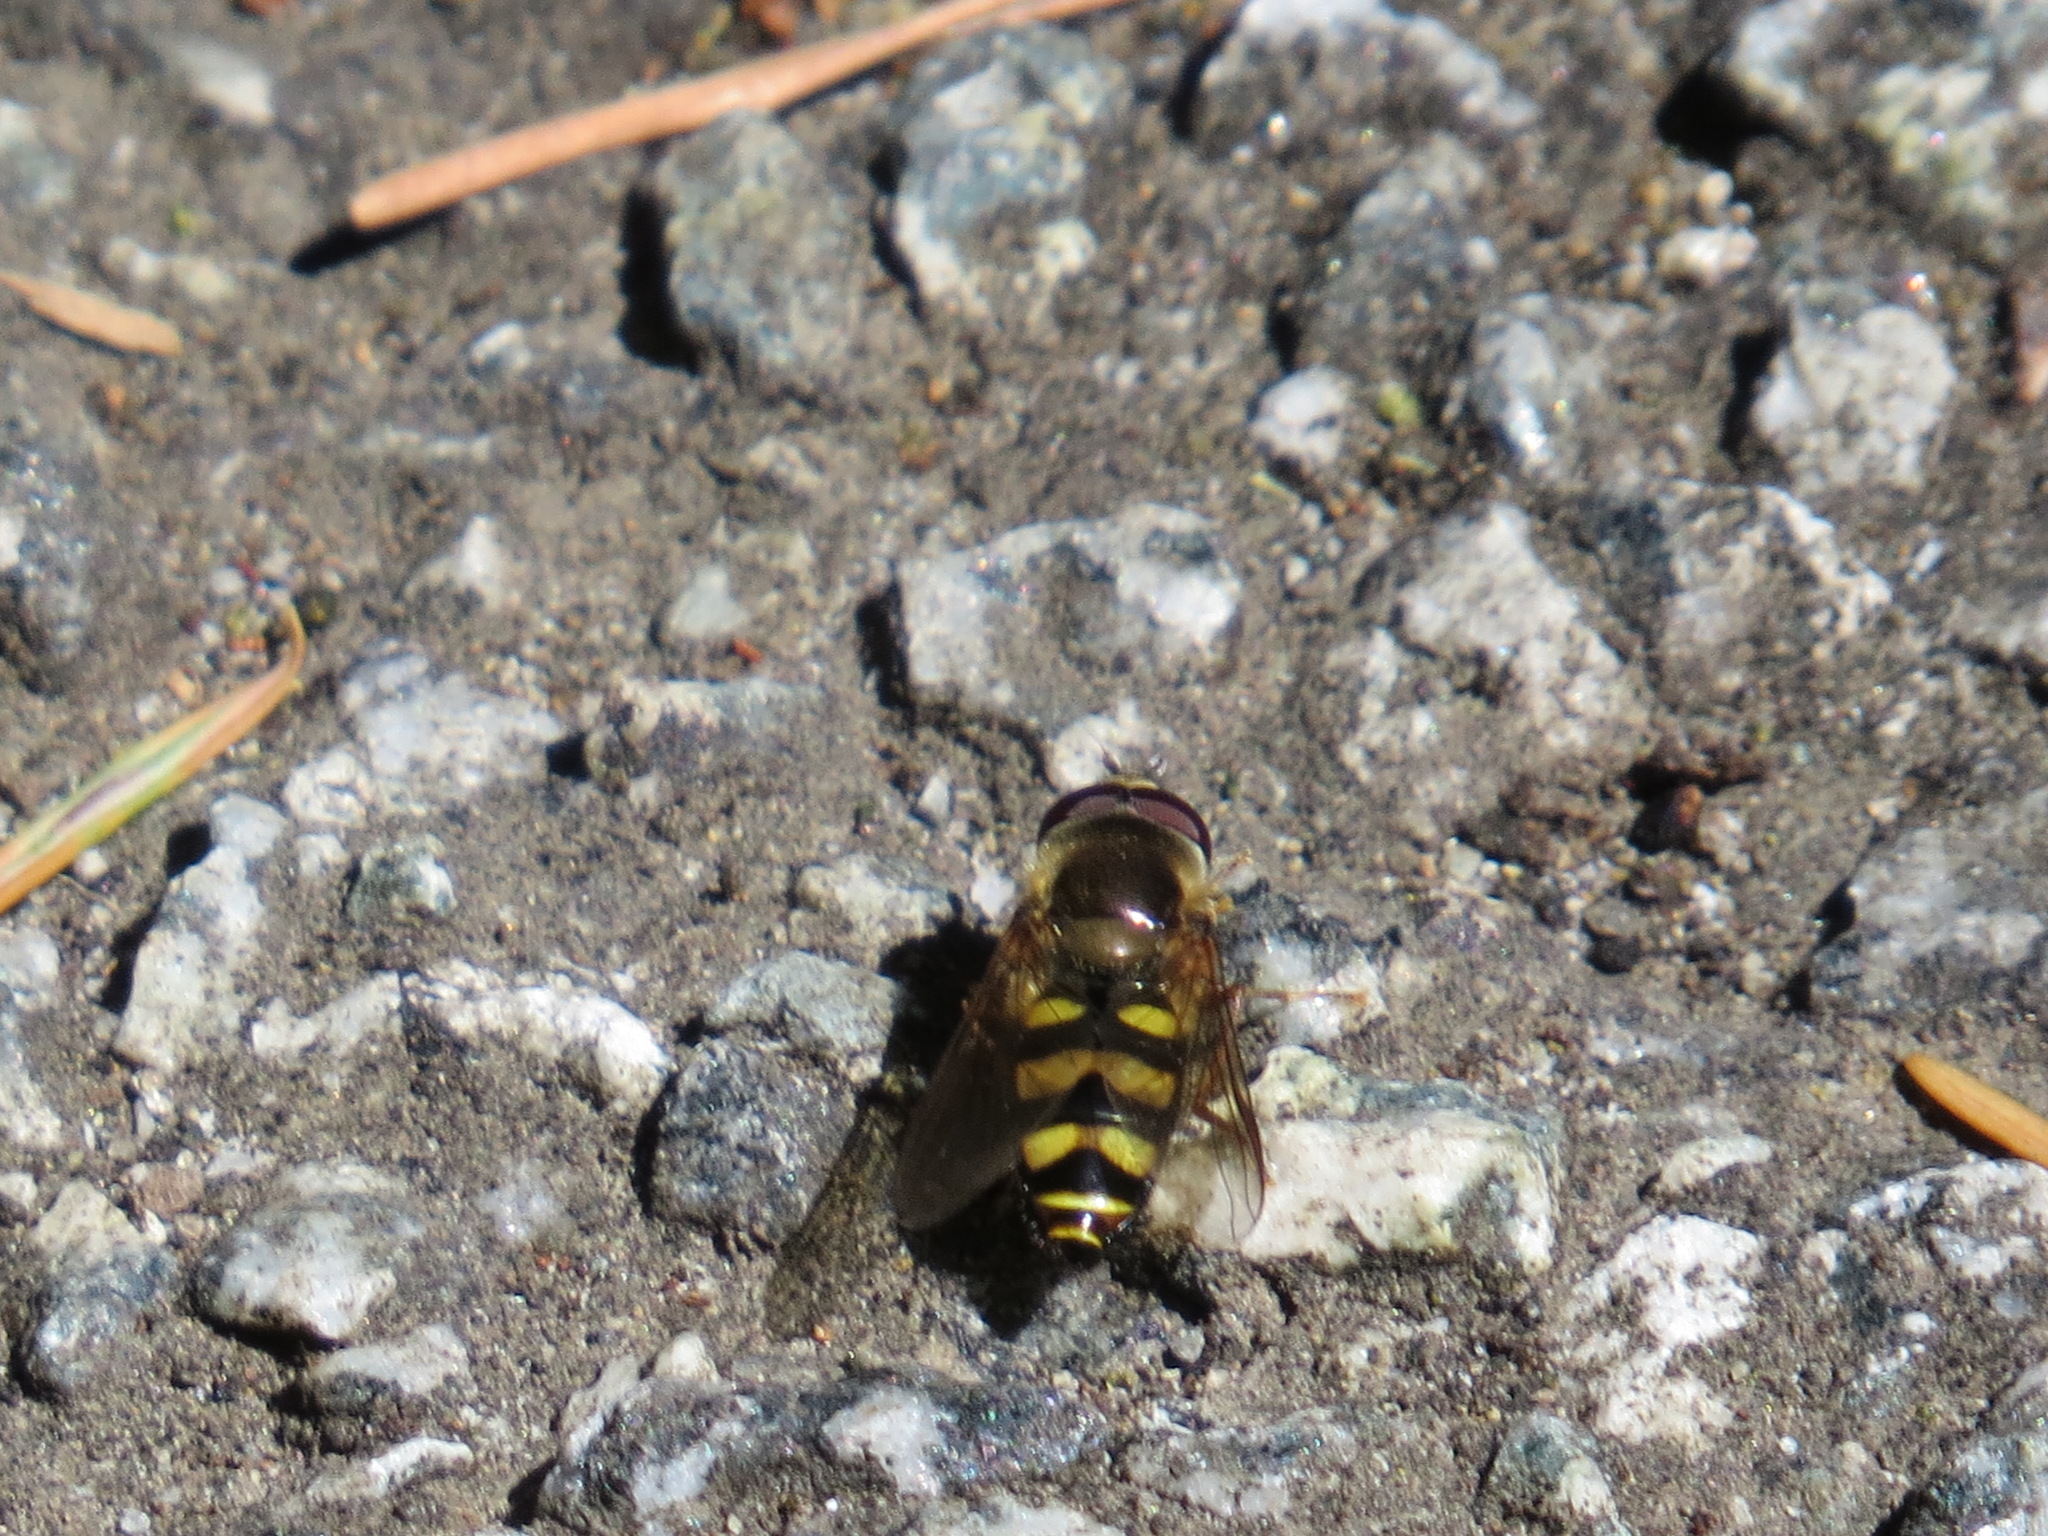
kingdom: Animalia
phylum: Arthropoda
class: Insecta
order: Diptera
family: Syrphidae
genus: Eupeodes
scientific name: Eupeodes fumipennis
